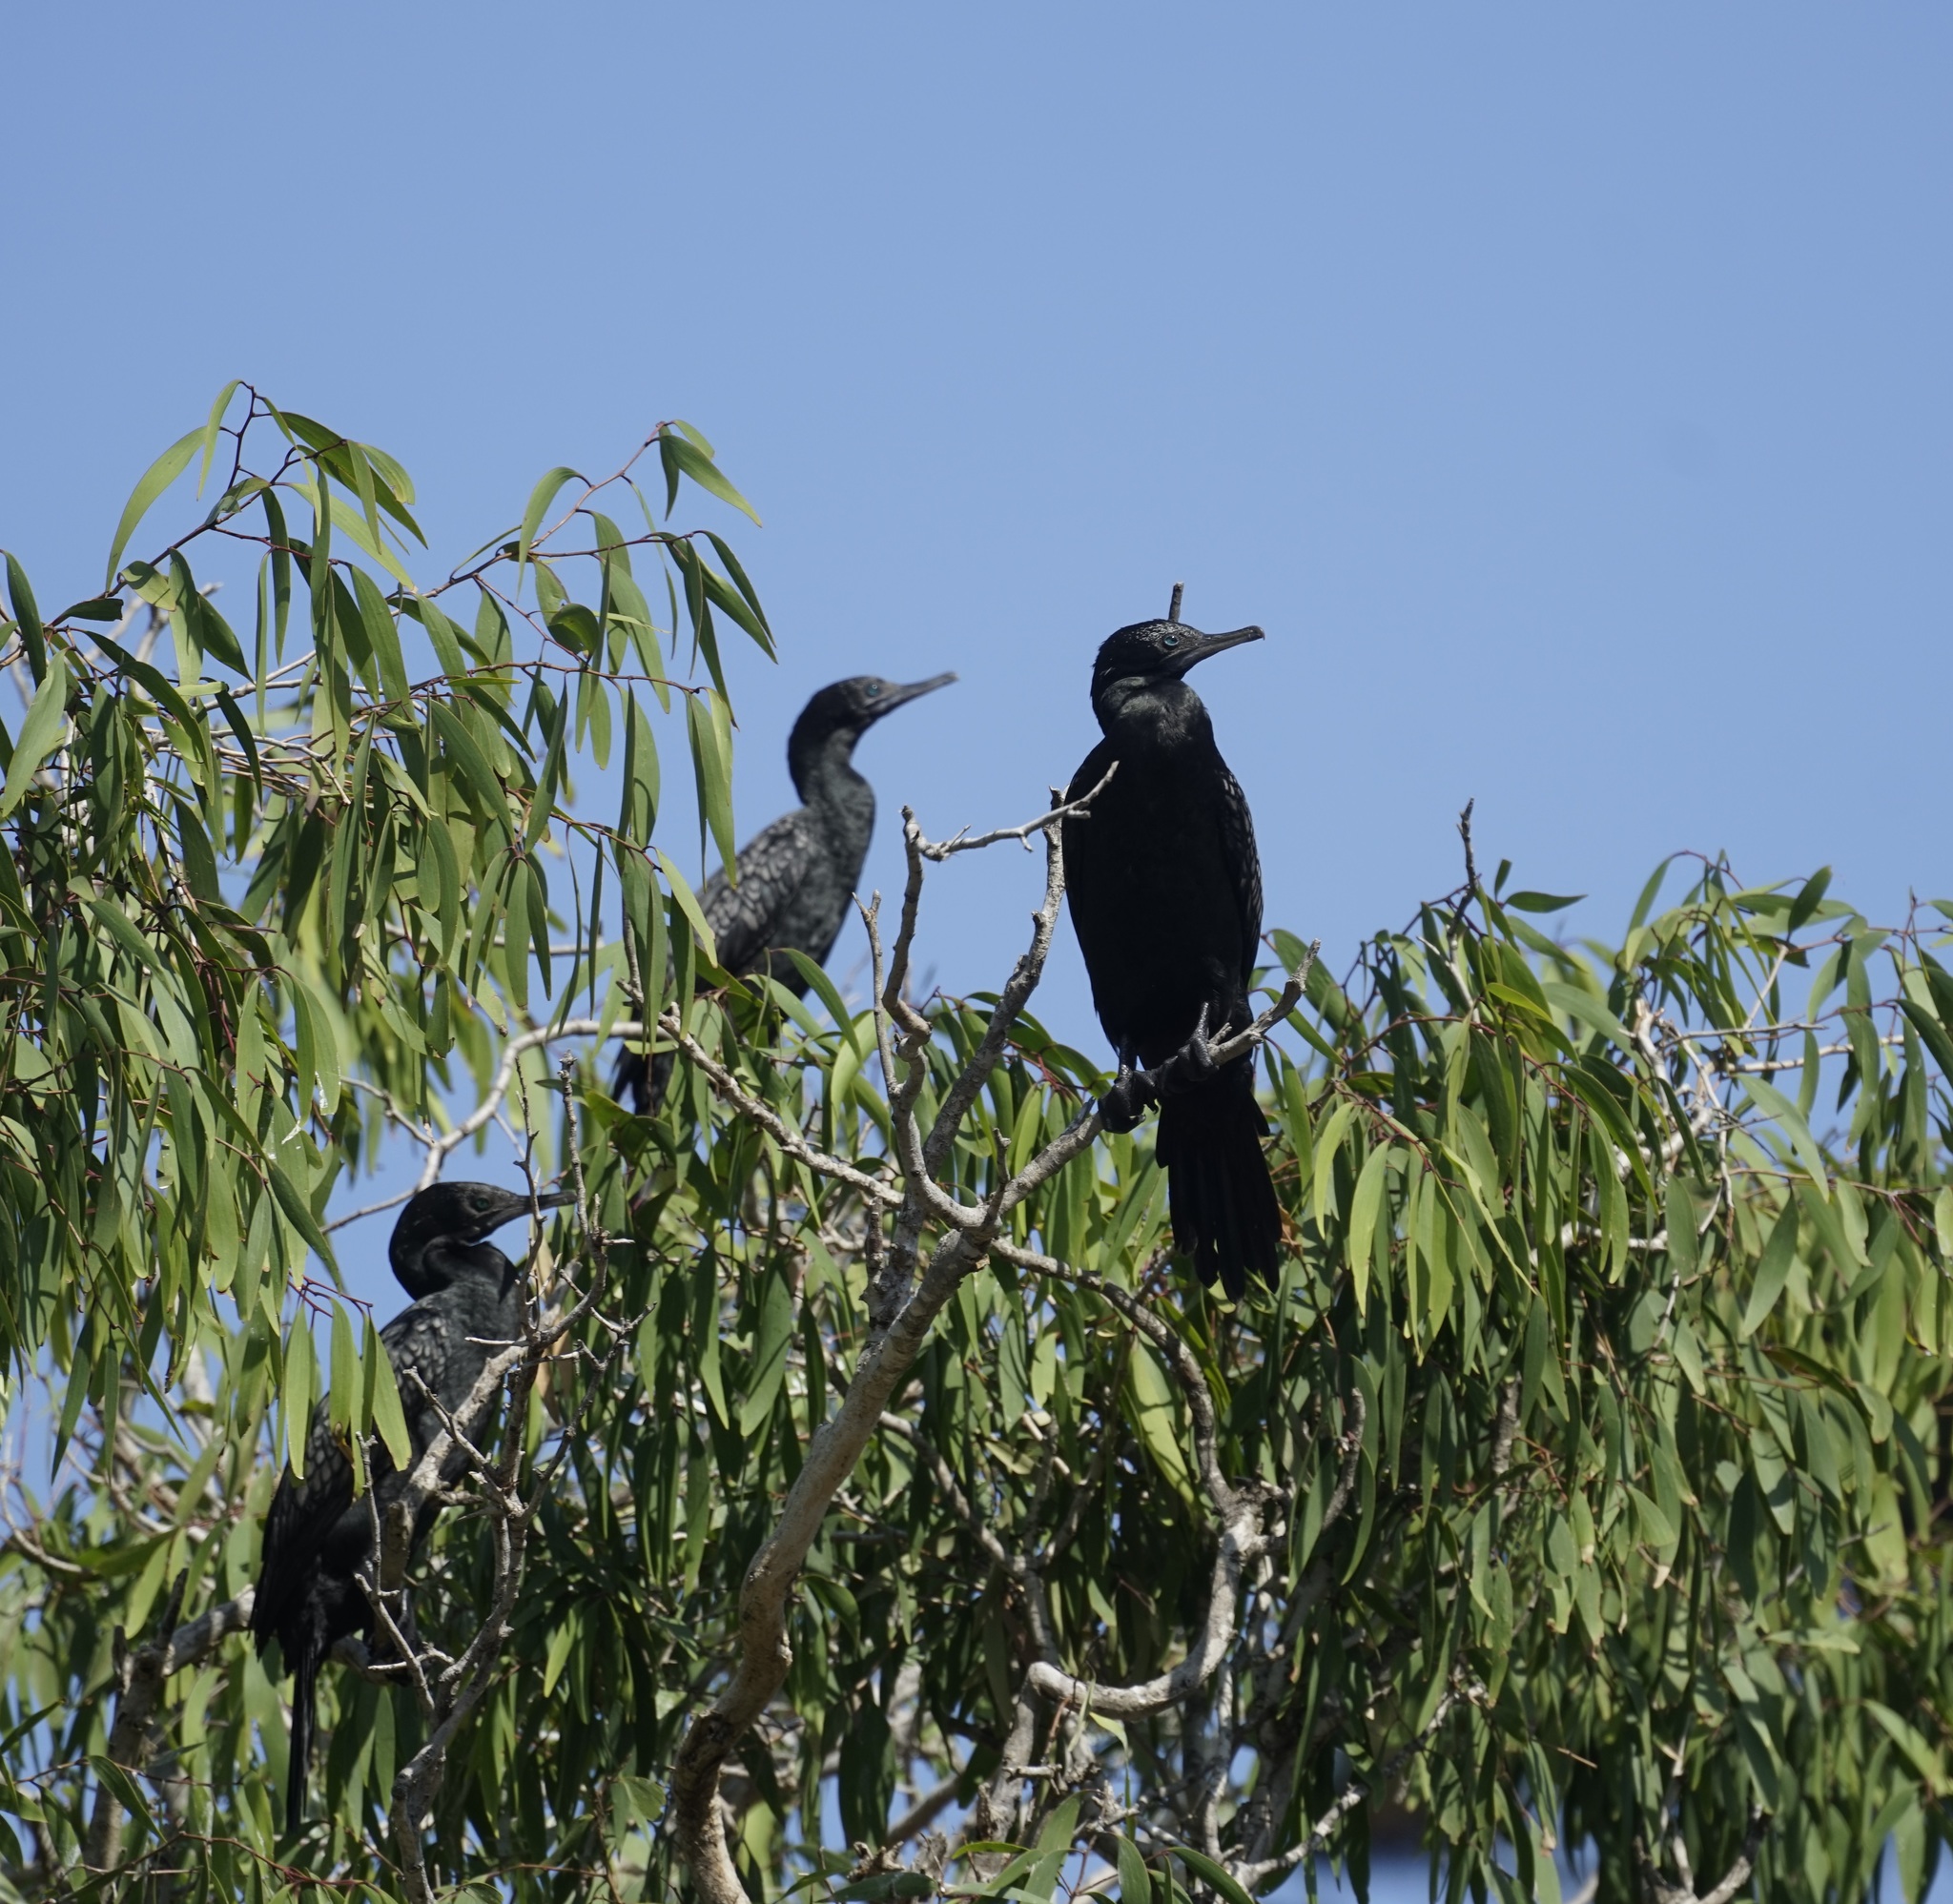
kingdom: Animalia
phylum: Chordata
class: Aves
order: Suliformes
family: Phalacrocoracidae
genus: Phalacrocorax
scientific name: Phalacrocorax sulcirostris
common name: Little black cormorant
